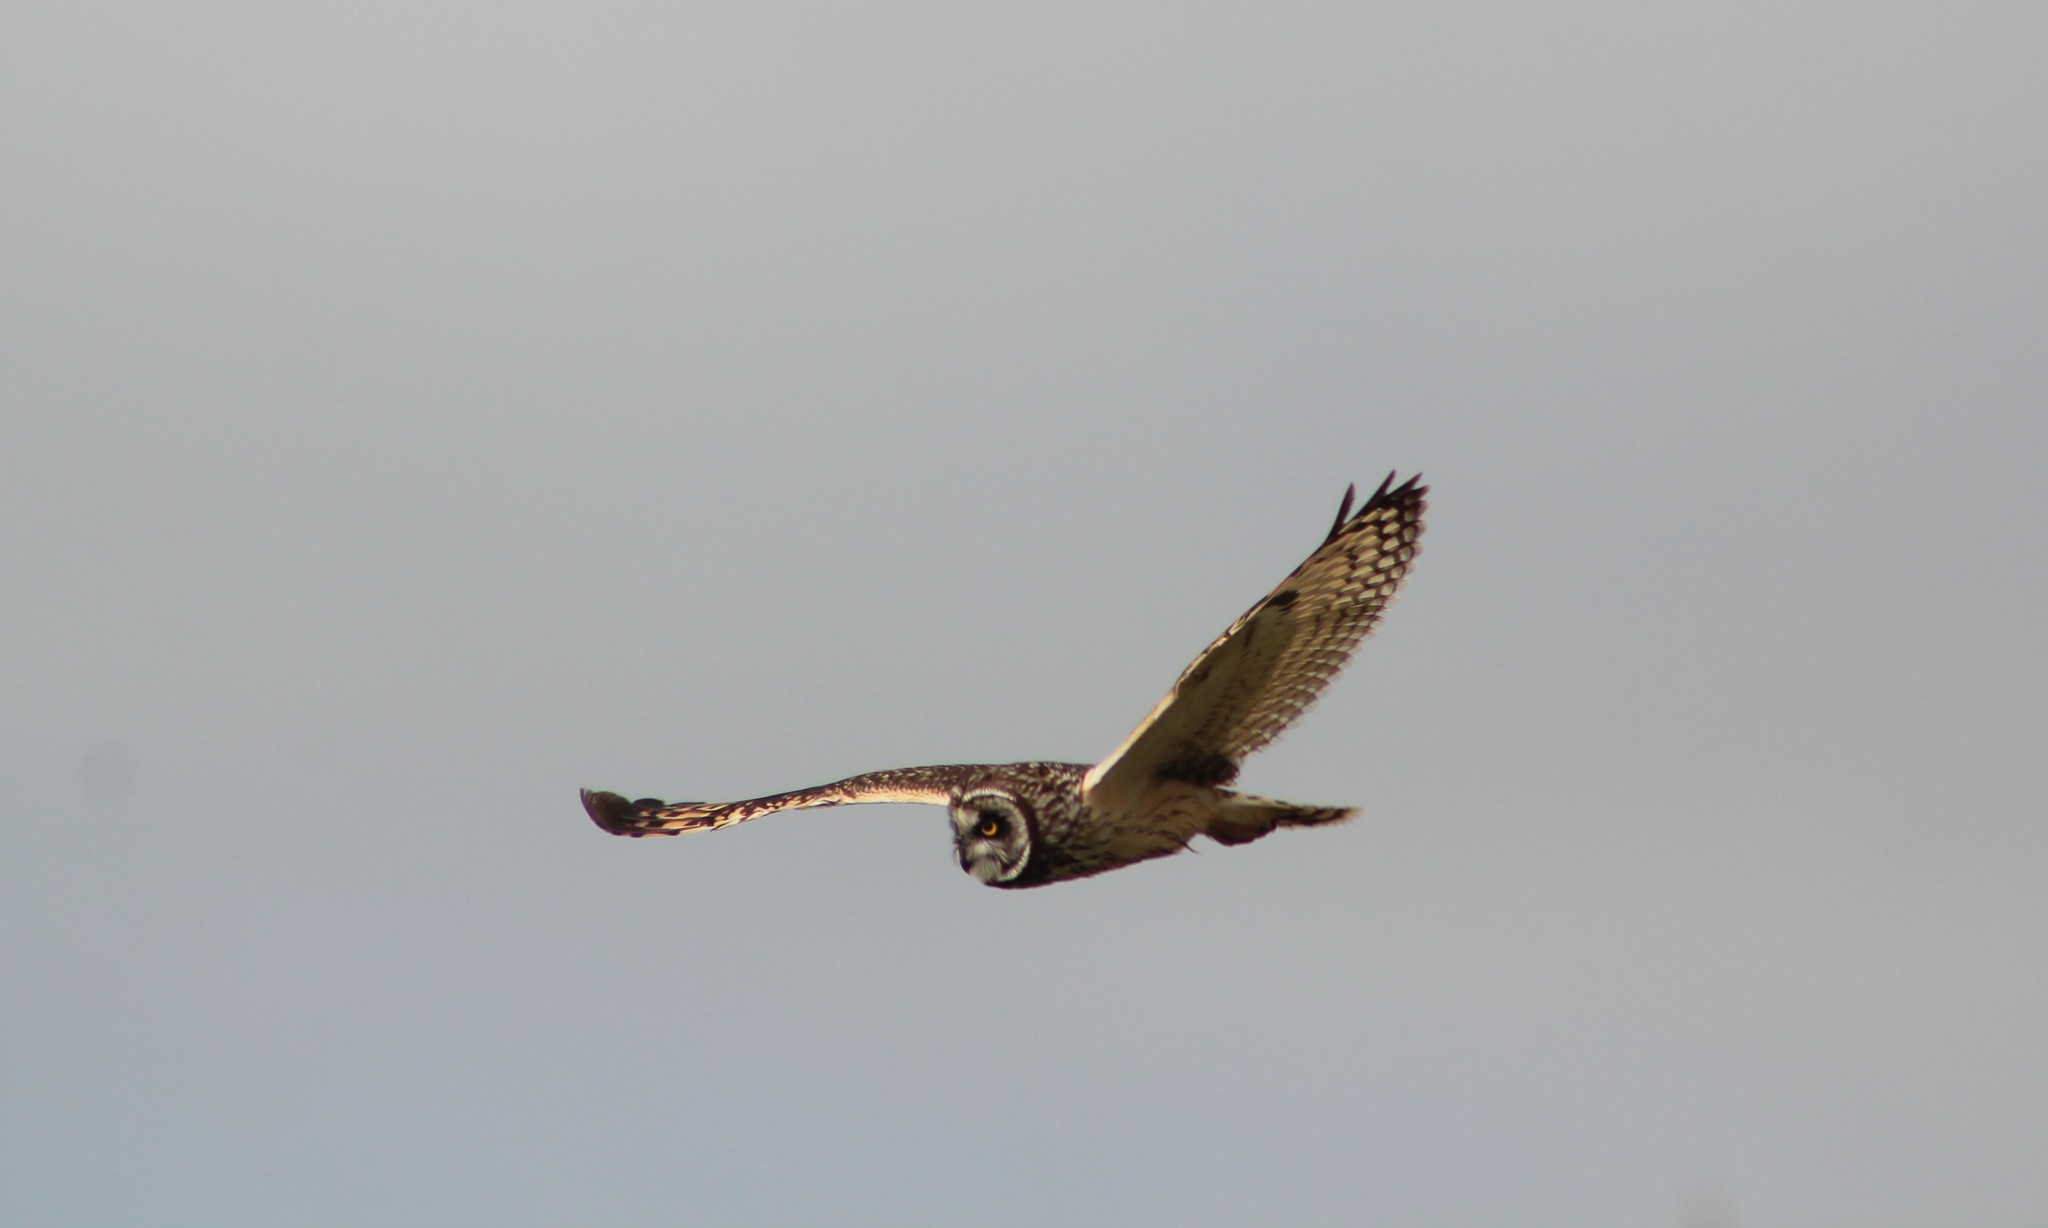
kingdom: Animalia
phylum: Chordata
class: Aves
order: Strigiformes
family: Strigidae
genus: Asio
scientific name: Asio flammeus
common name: Short-eared owl
